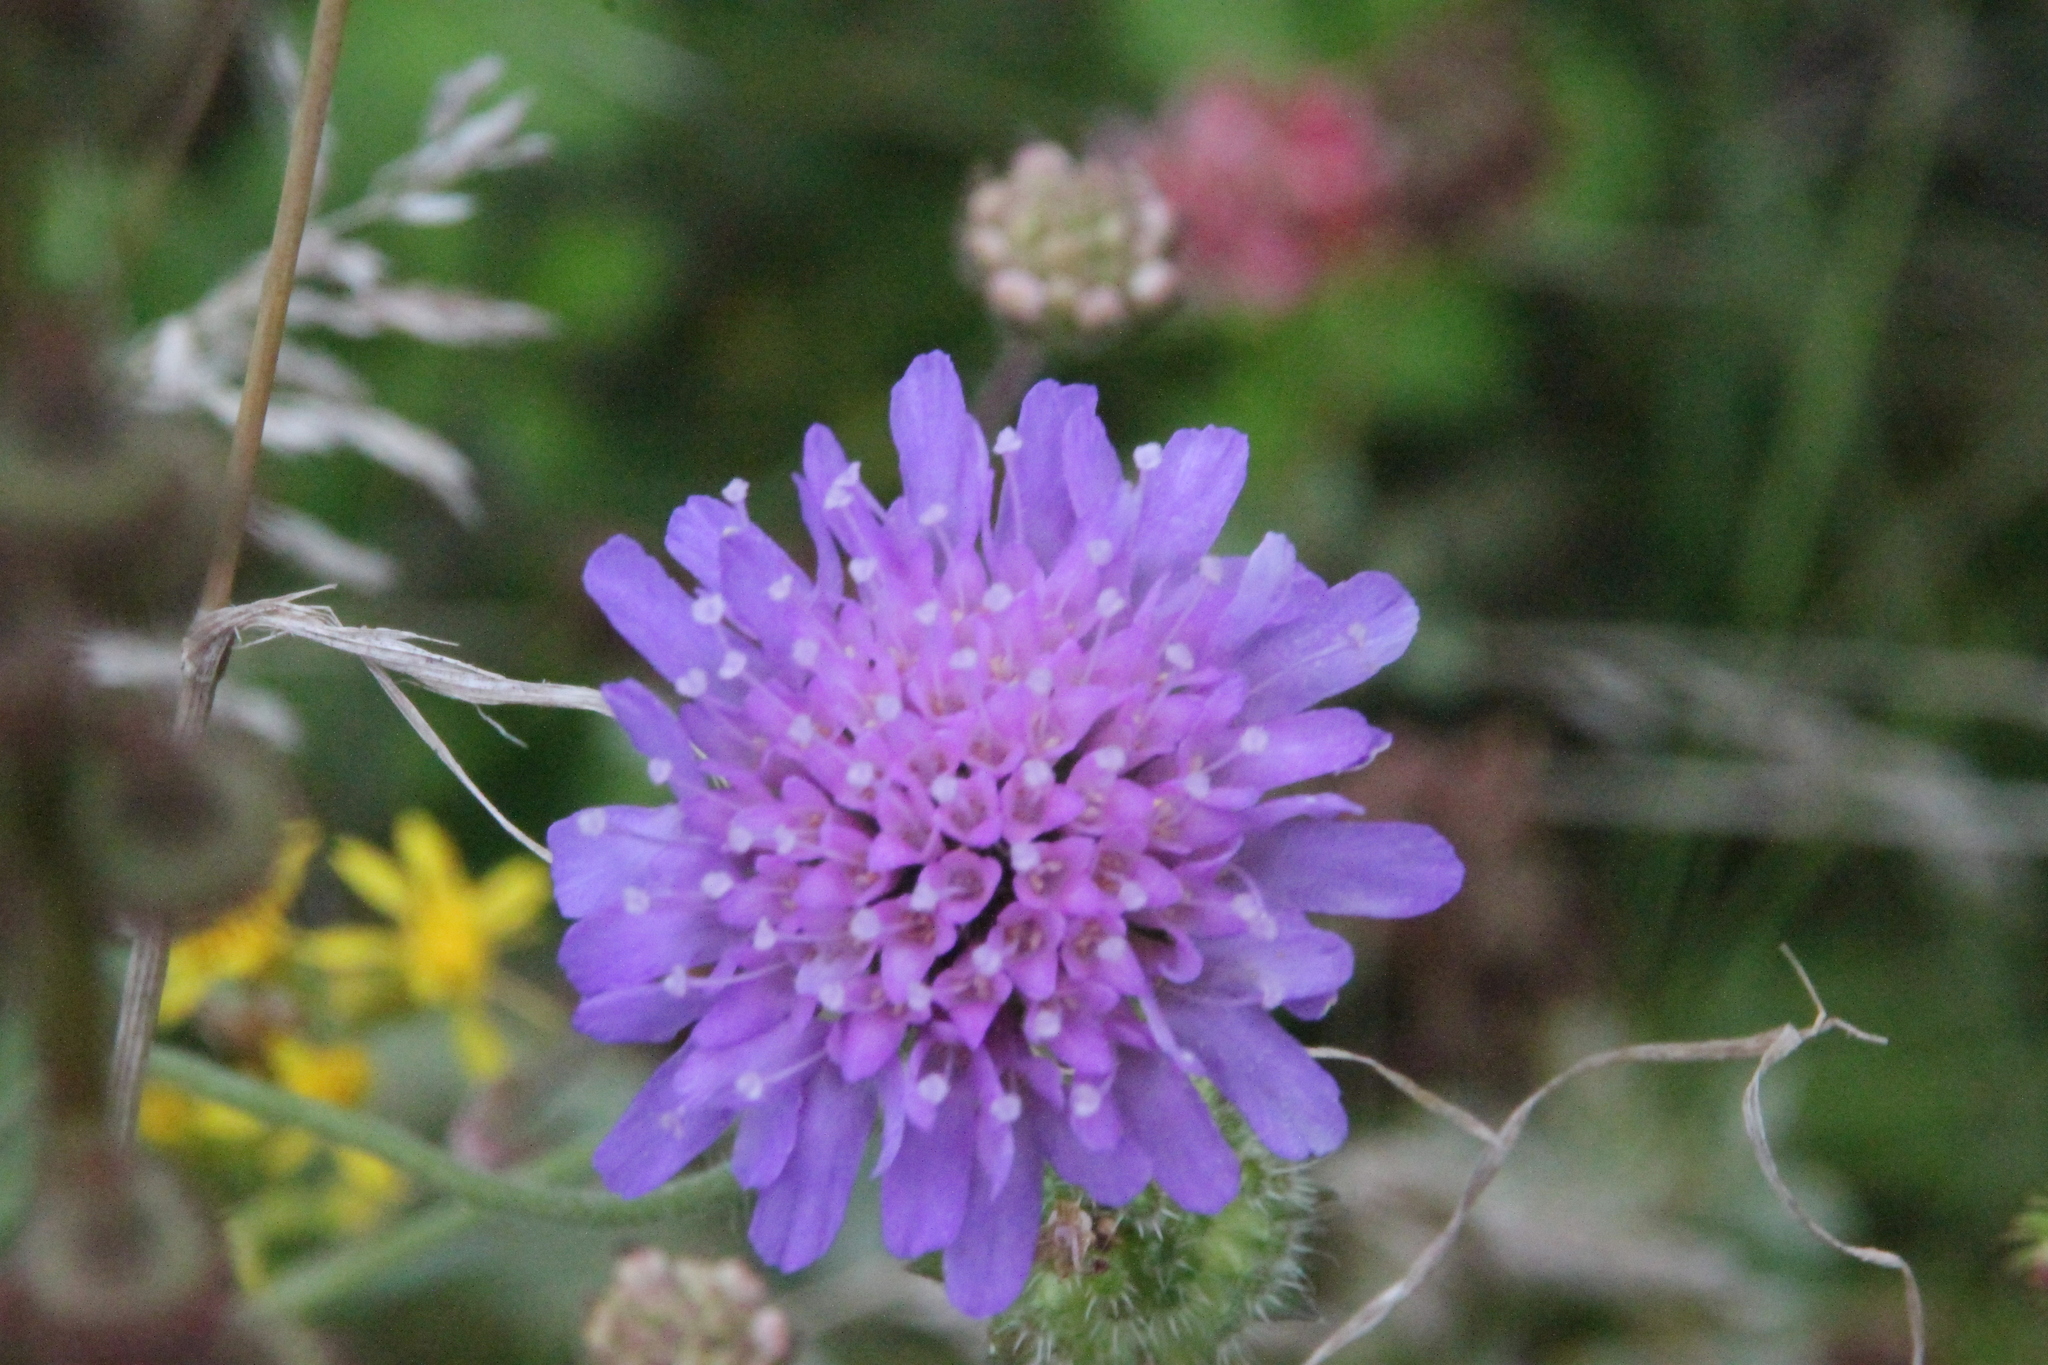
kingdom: Plantae
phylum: Tracheophyta
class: Magnoliopsida
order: Dipsacales
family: Caprifoliaceae
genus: Knautia
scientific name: Knautia arvensis
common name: Field scabiosa
